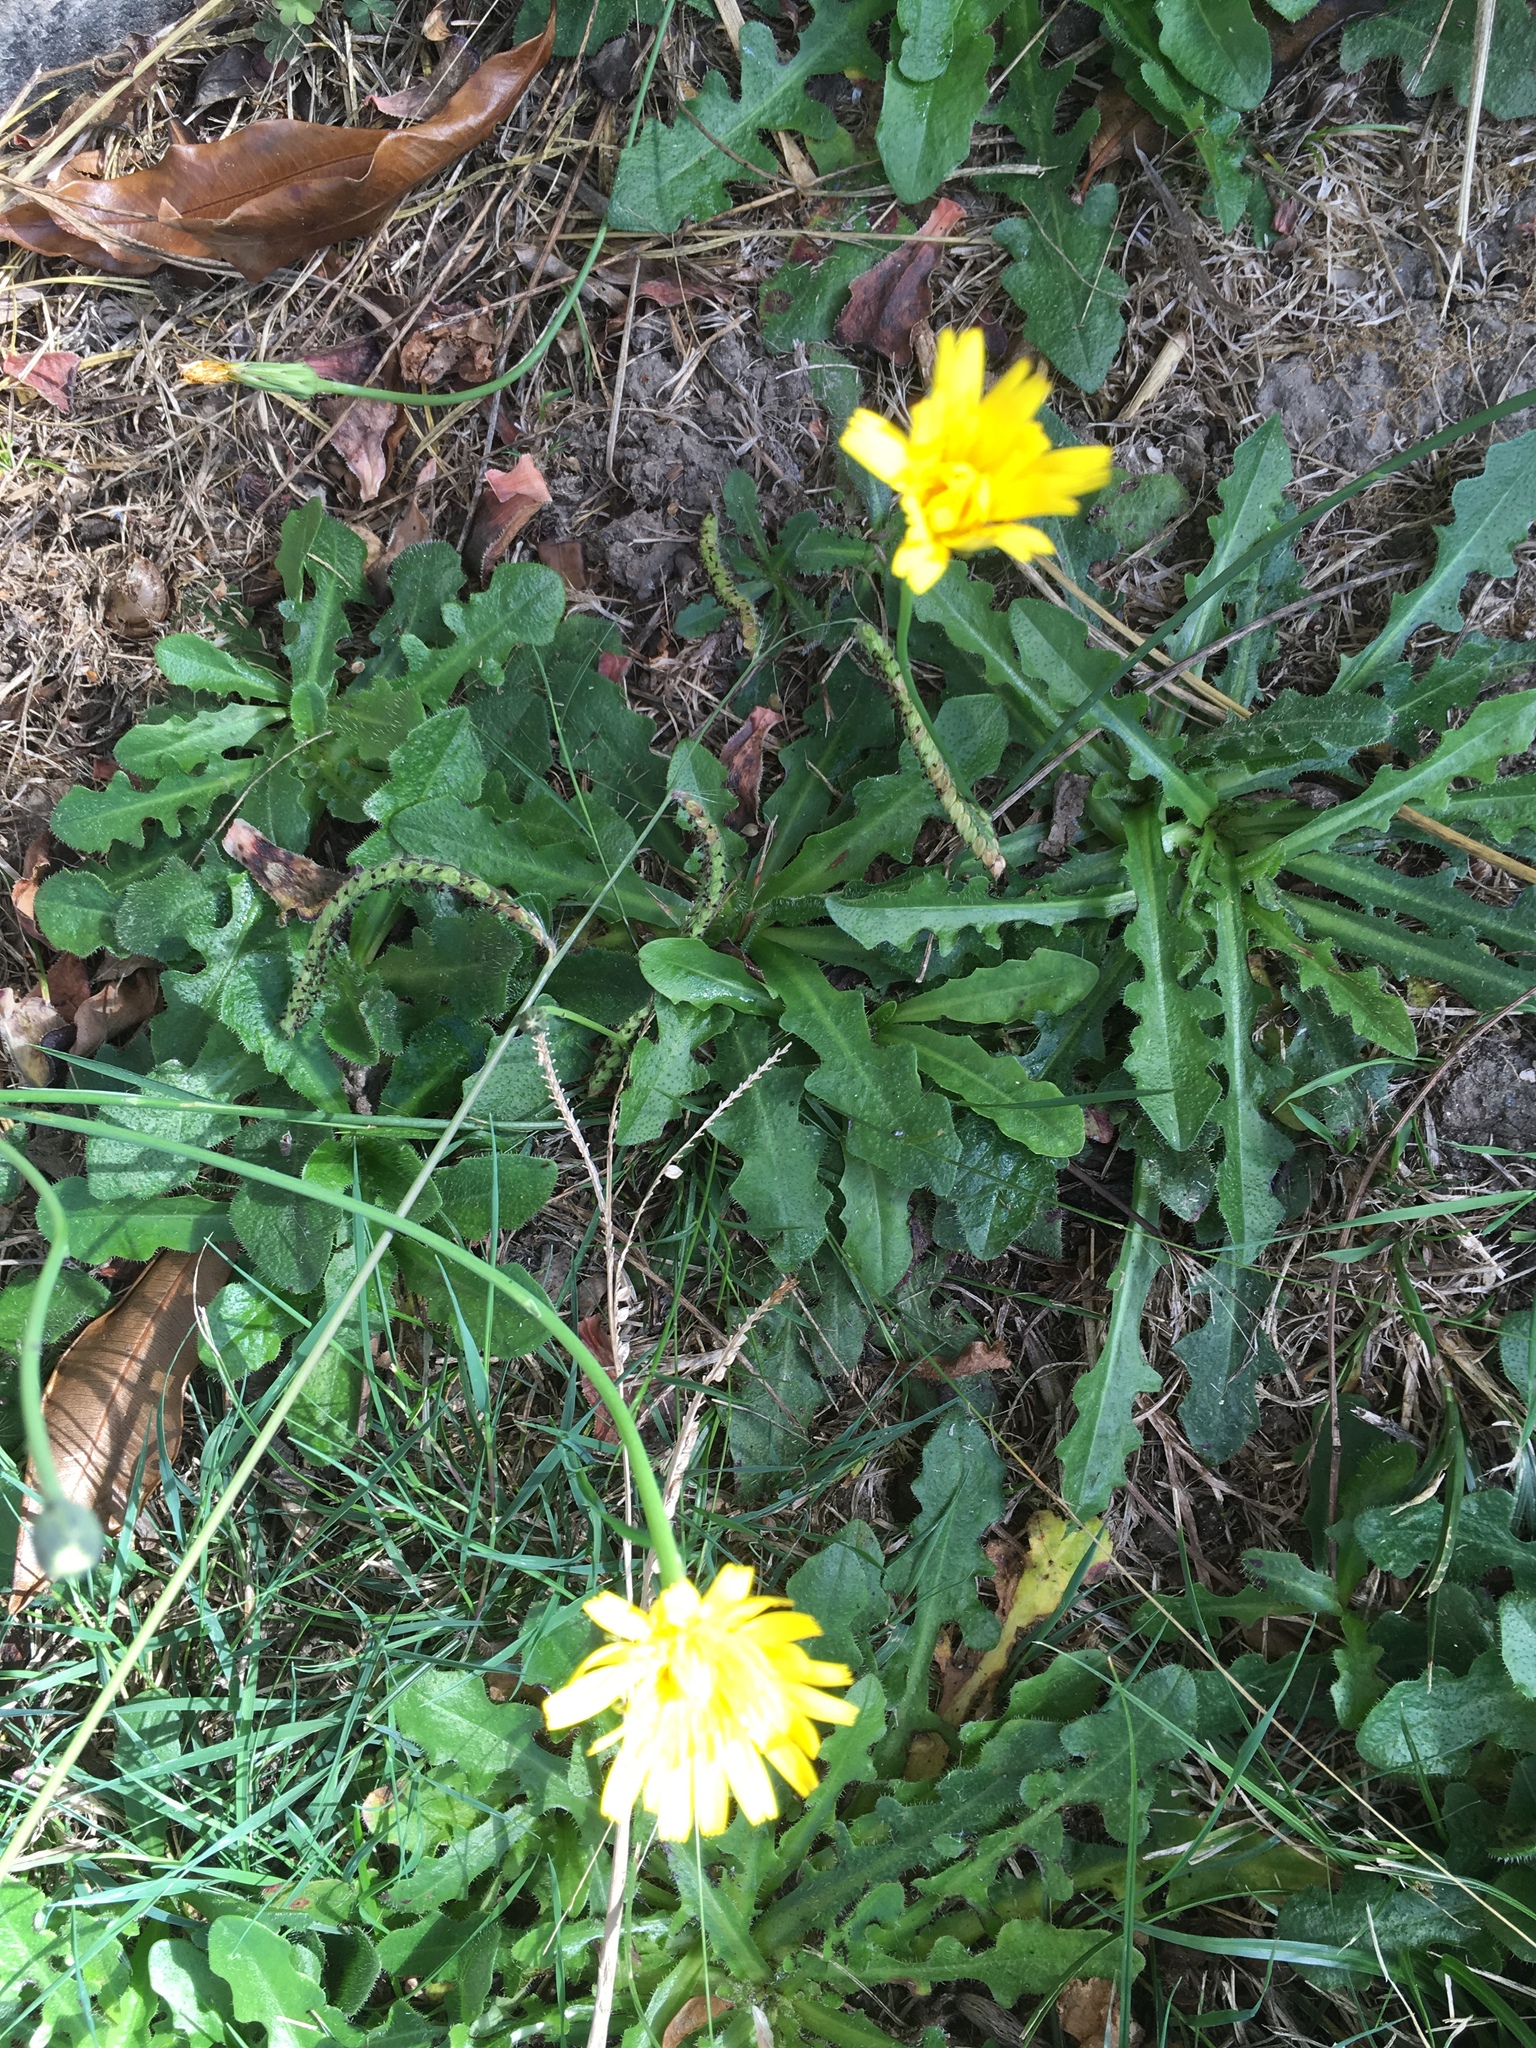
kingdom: Plantae
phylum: Tracheophyta
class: Magnoliopsida
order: Asterales
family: Asteraceae
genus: Hypochaeris
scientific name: Hypochaeris radicata
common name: Flatweed
